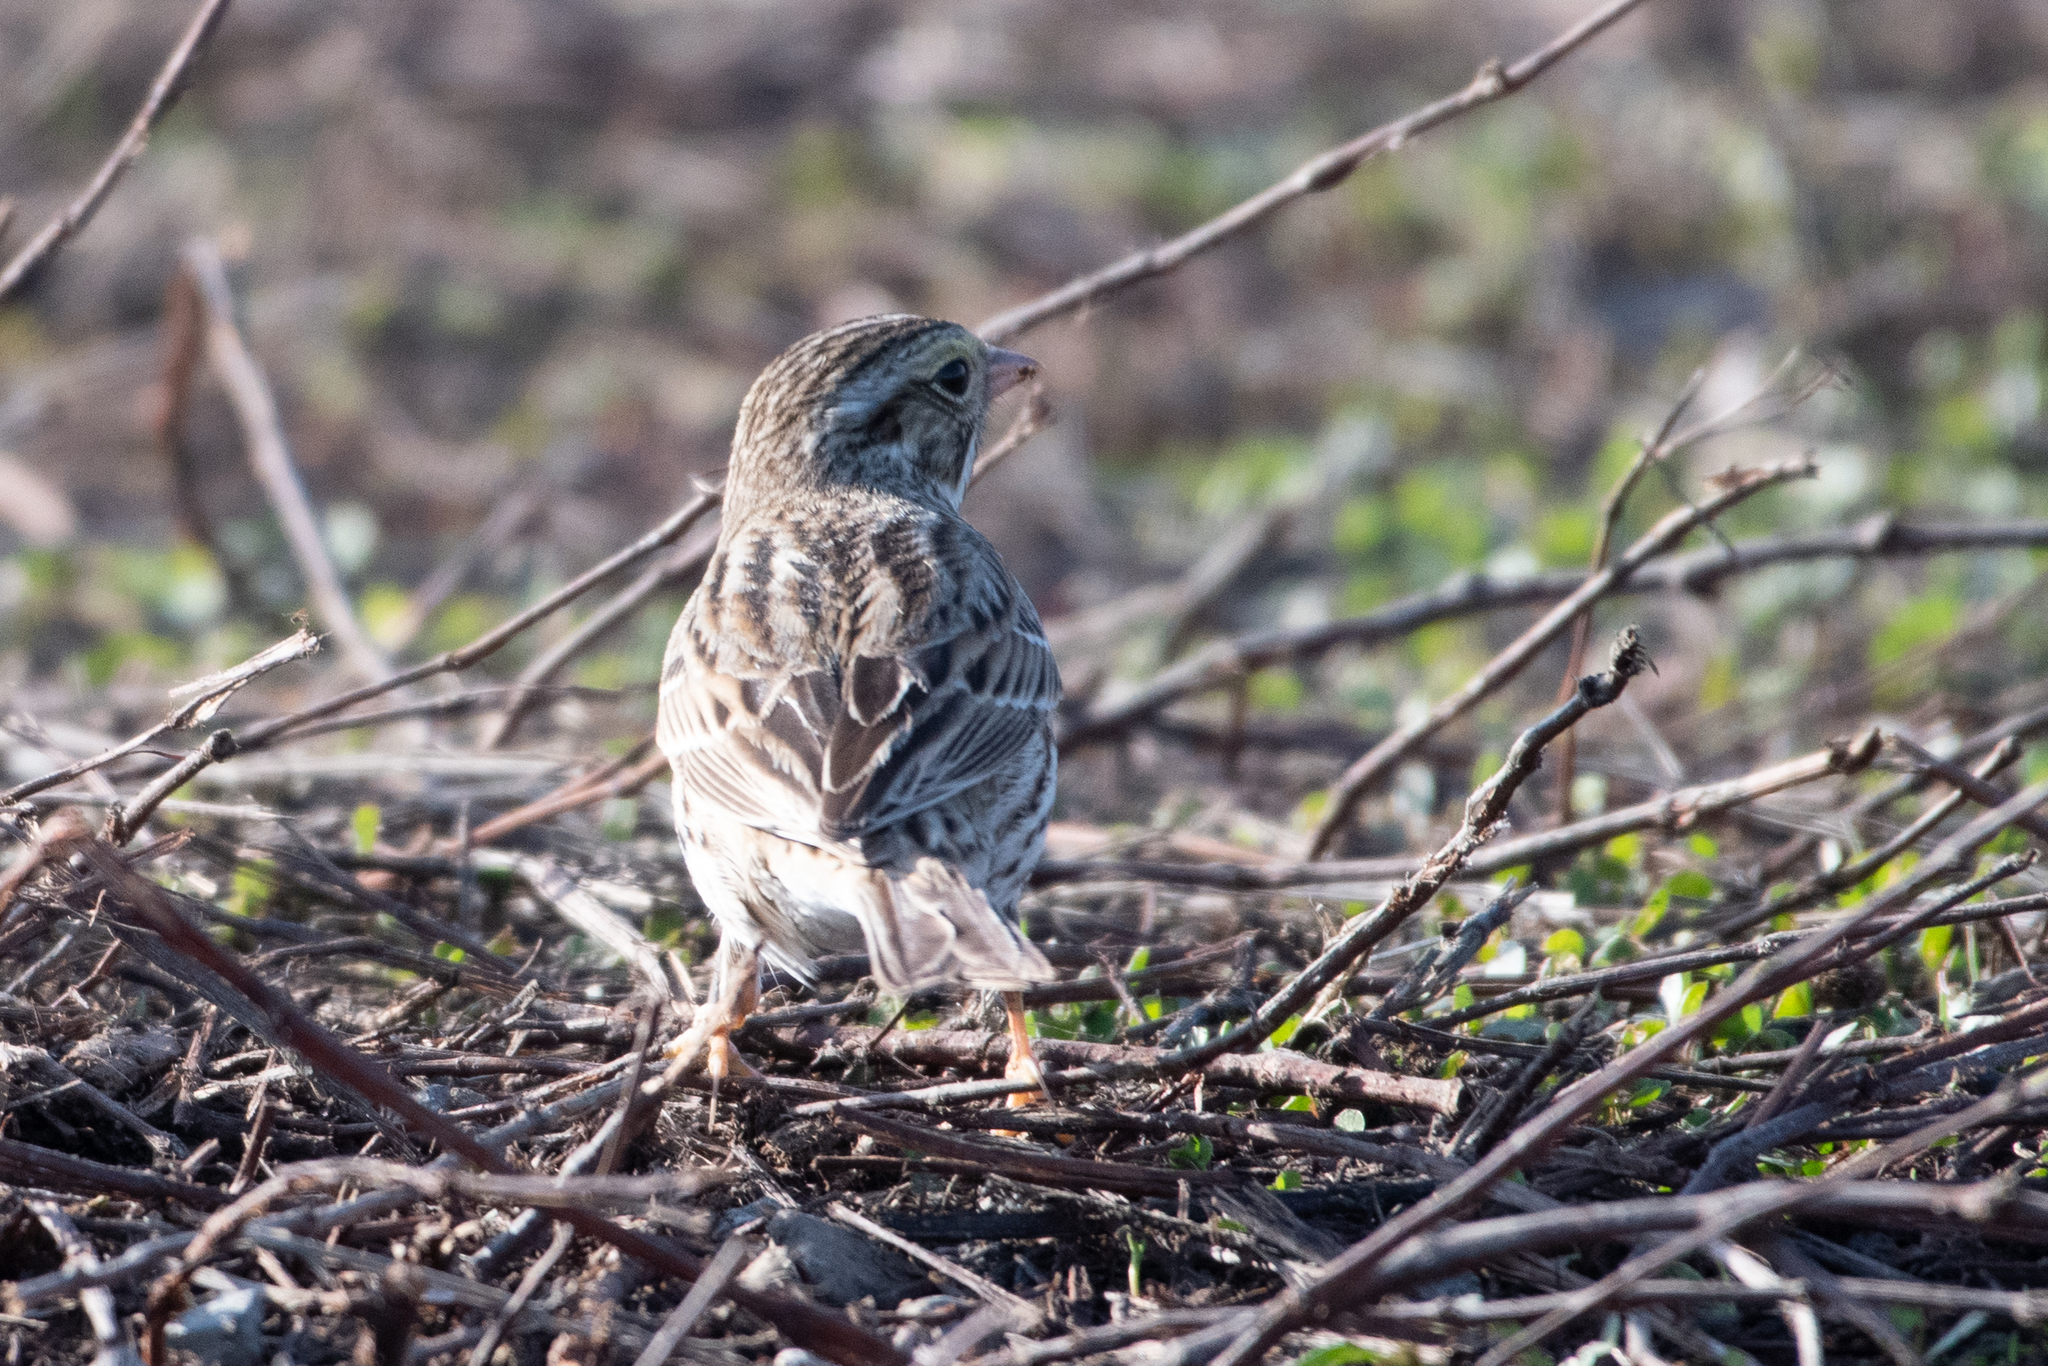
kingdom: Animalia
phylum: Chordata
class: Aves
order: Passeriformes
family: Passerellidae
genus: Passerculus
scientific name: Passerculus sandwichensis
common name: Savannah sparrow
